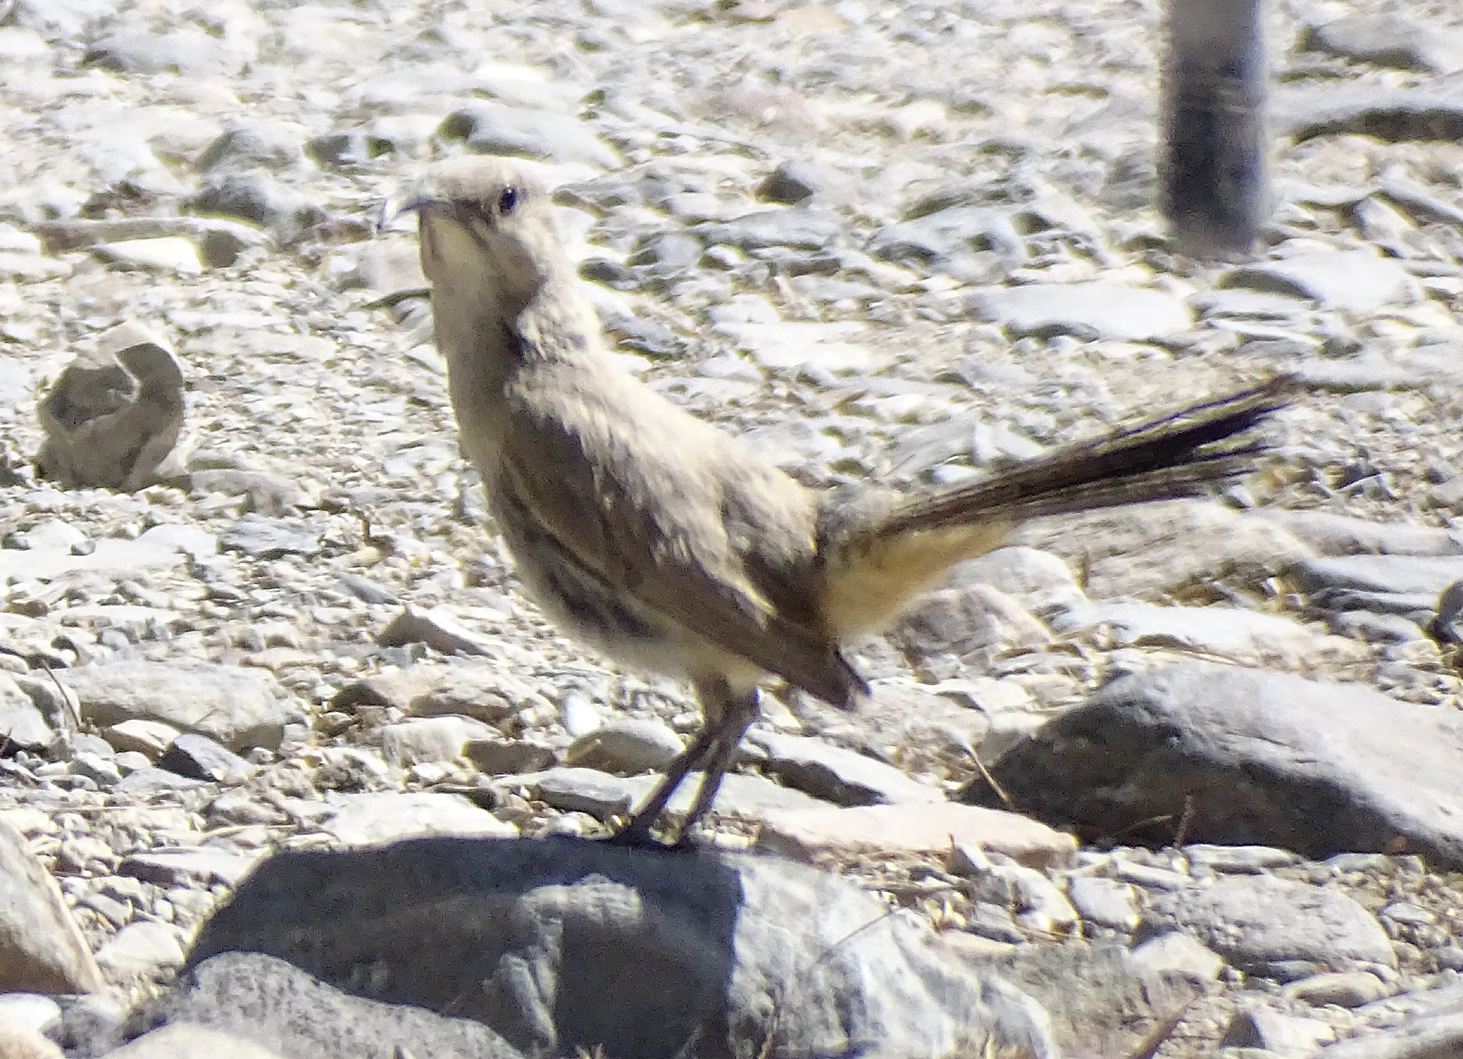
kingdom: Animalia
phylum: Chordata
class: Aves
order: Passeriformes
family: Mimidae
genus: Toxostoma
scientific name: Toxostoma lecontei
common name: Le conte's thrasher
